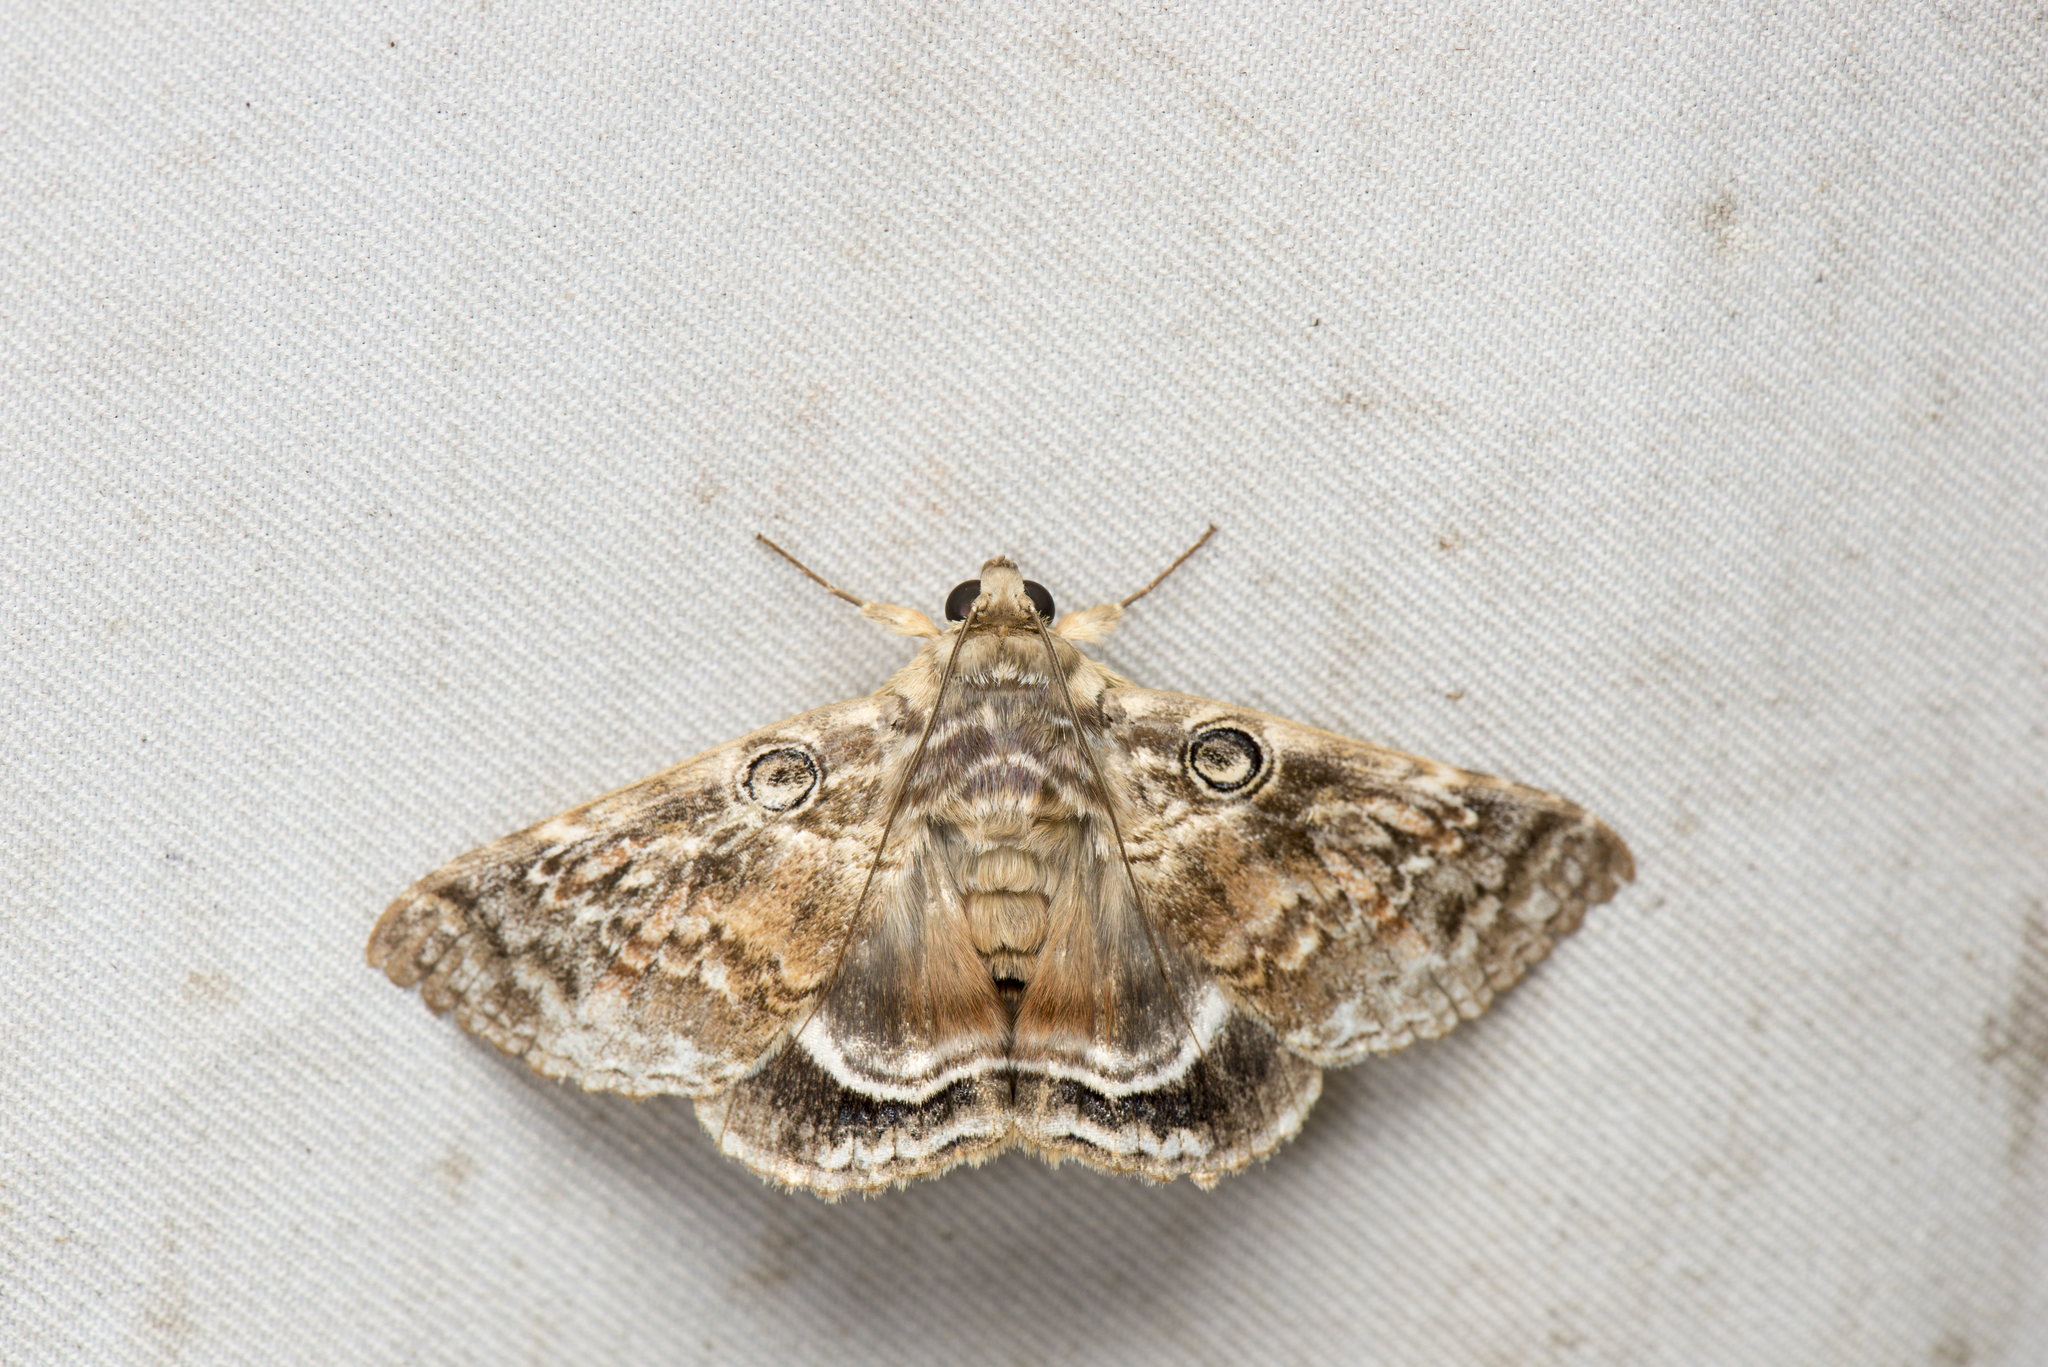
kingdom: Animalia
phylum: Arthropoda
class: Insecta
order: Lepidoptera
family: Erebidae
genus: Cyclodes
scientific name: Cyclodes omma
